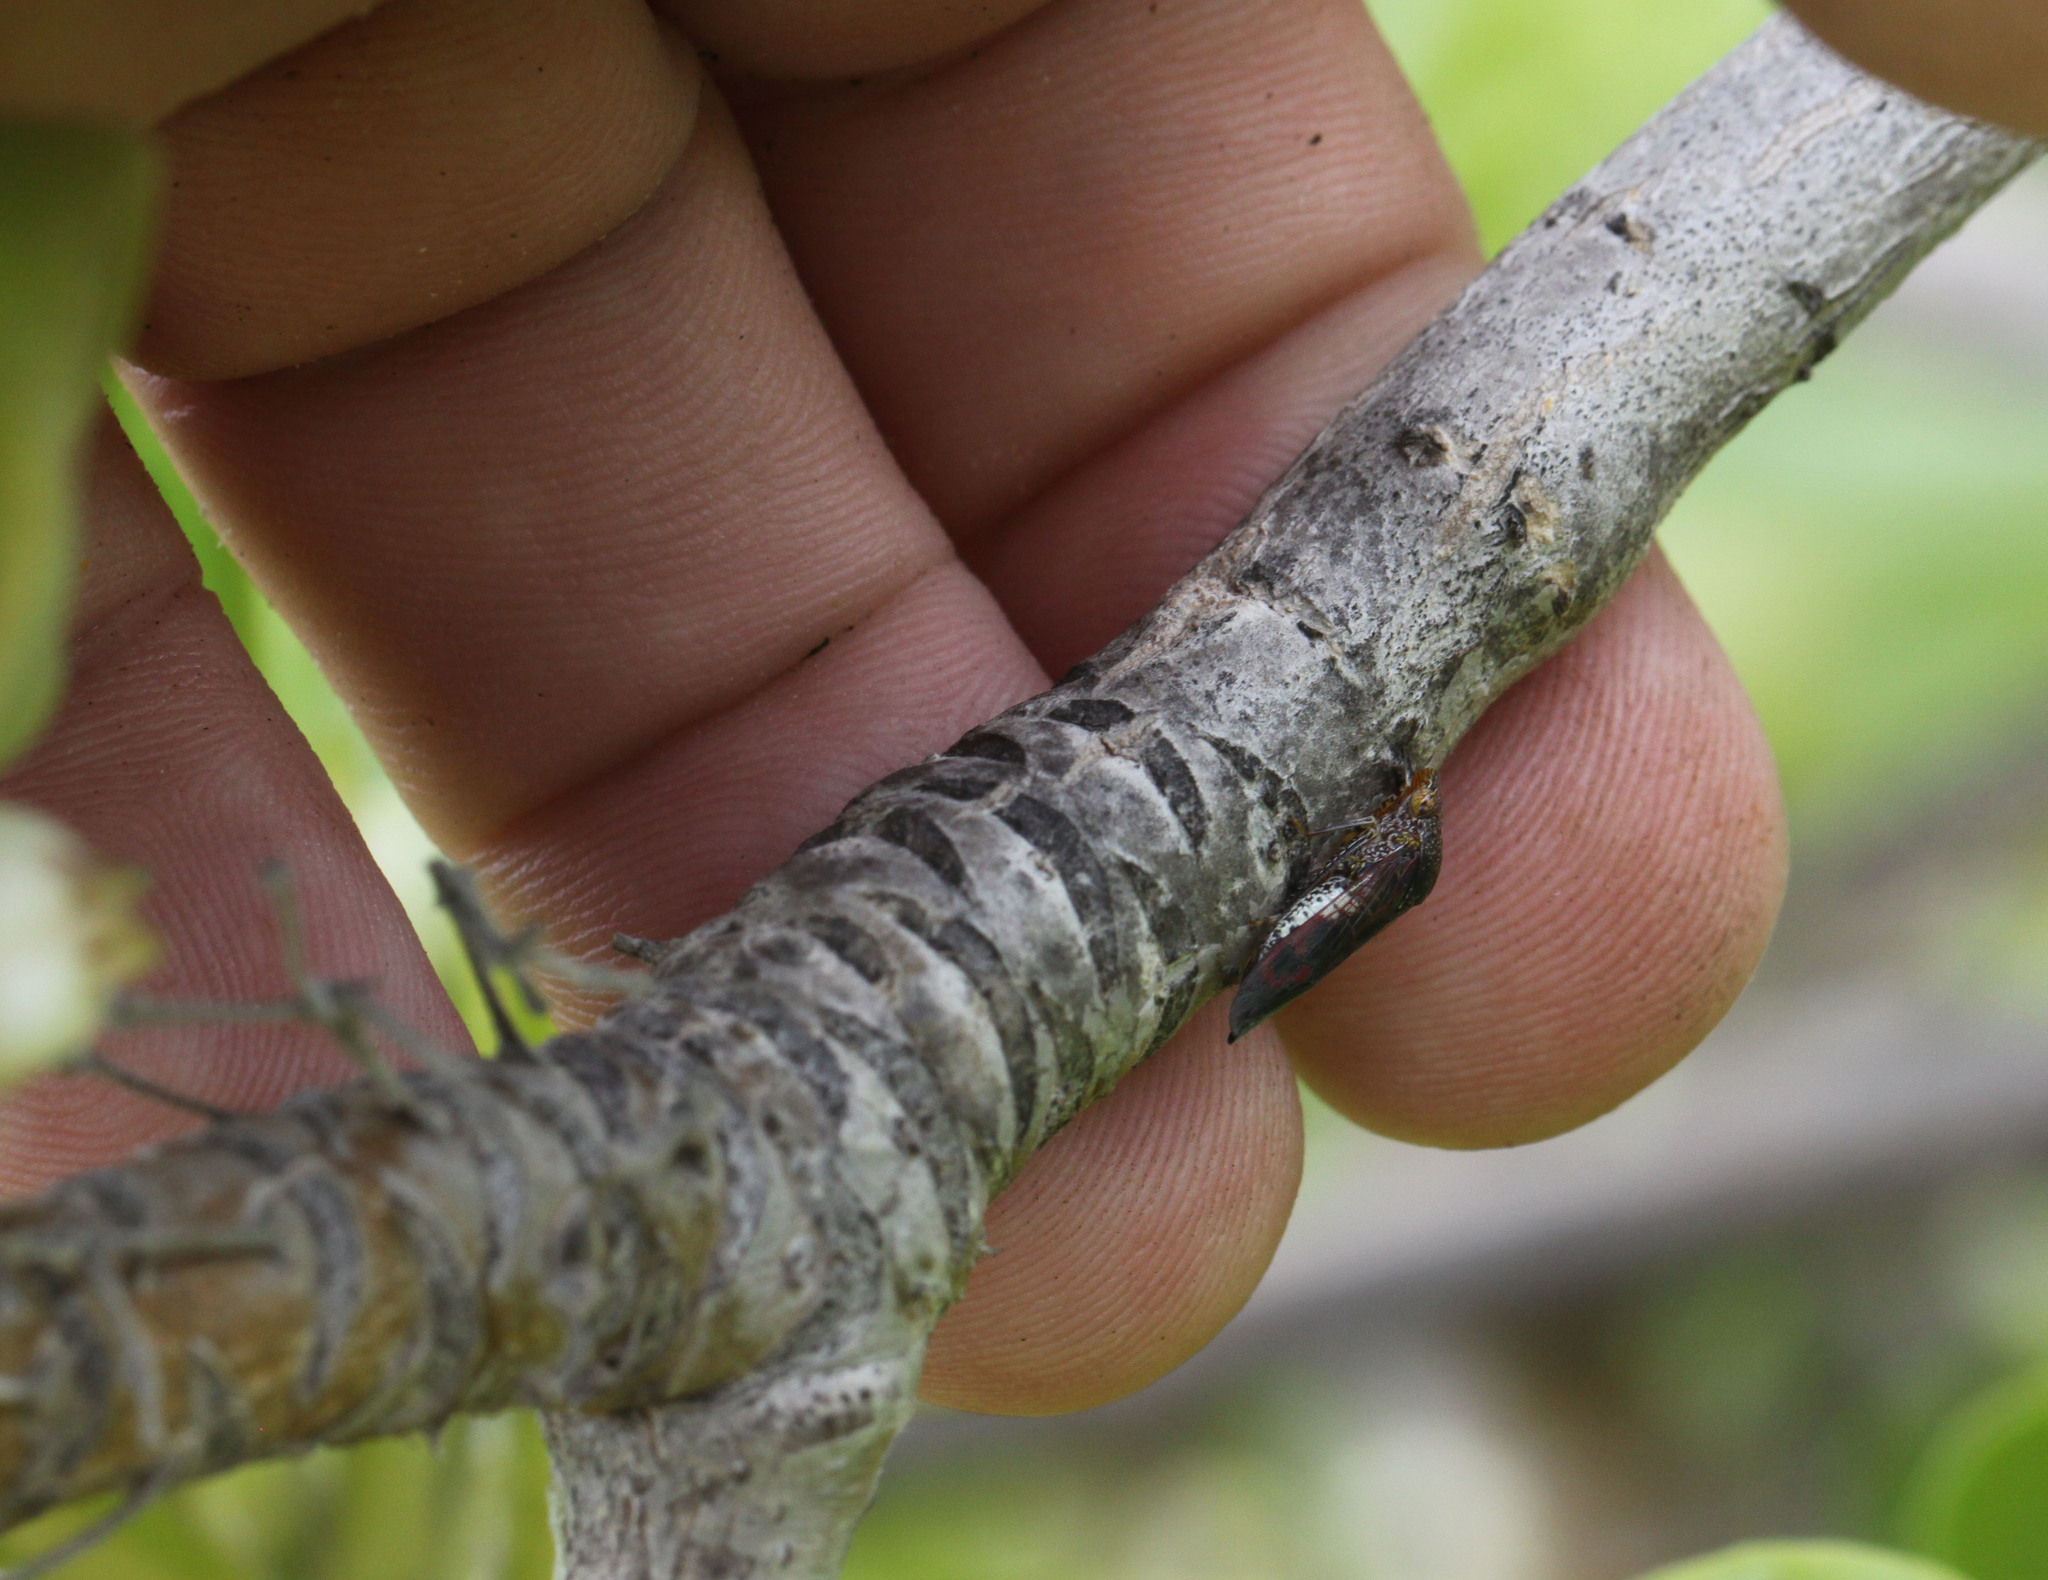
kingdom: Animalia
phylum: Arthropoda
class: Insecta
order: Hemiptera
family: Cicadellidae
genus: Homalodisca
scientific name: Homalodisca vitripennis
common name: Glassy-winged sharpshooter
